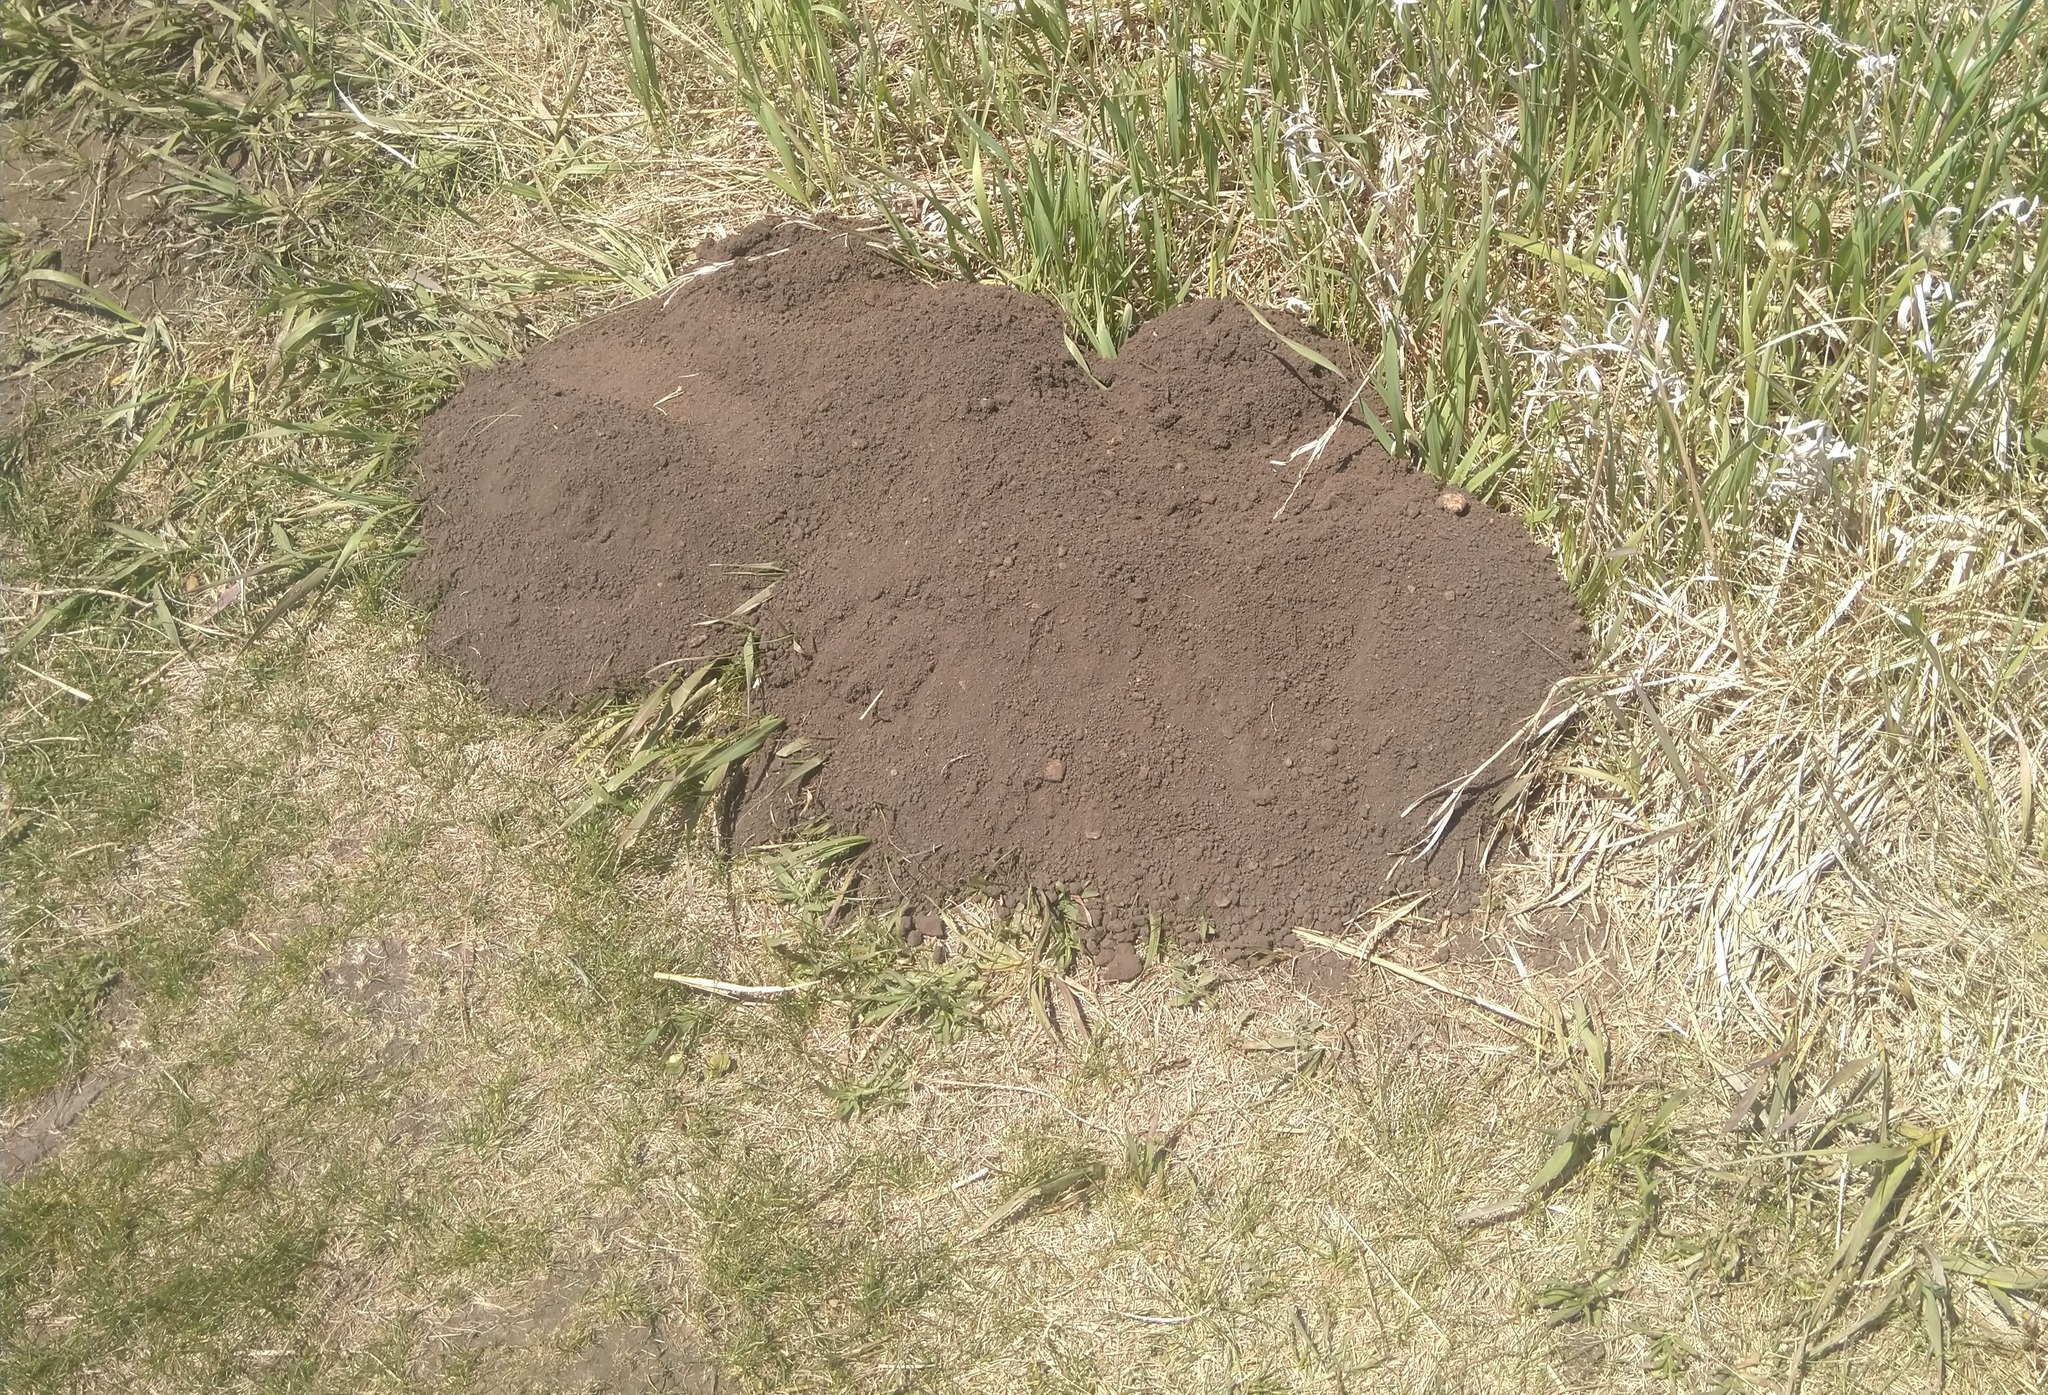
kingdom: Animalia
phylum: Chordata
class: Mammalia
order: Rodentia
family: Geomyidae
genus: Geomys
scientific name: Geomys bursarius
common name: Plains pocket gopher
